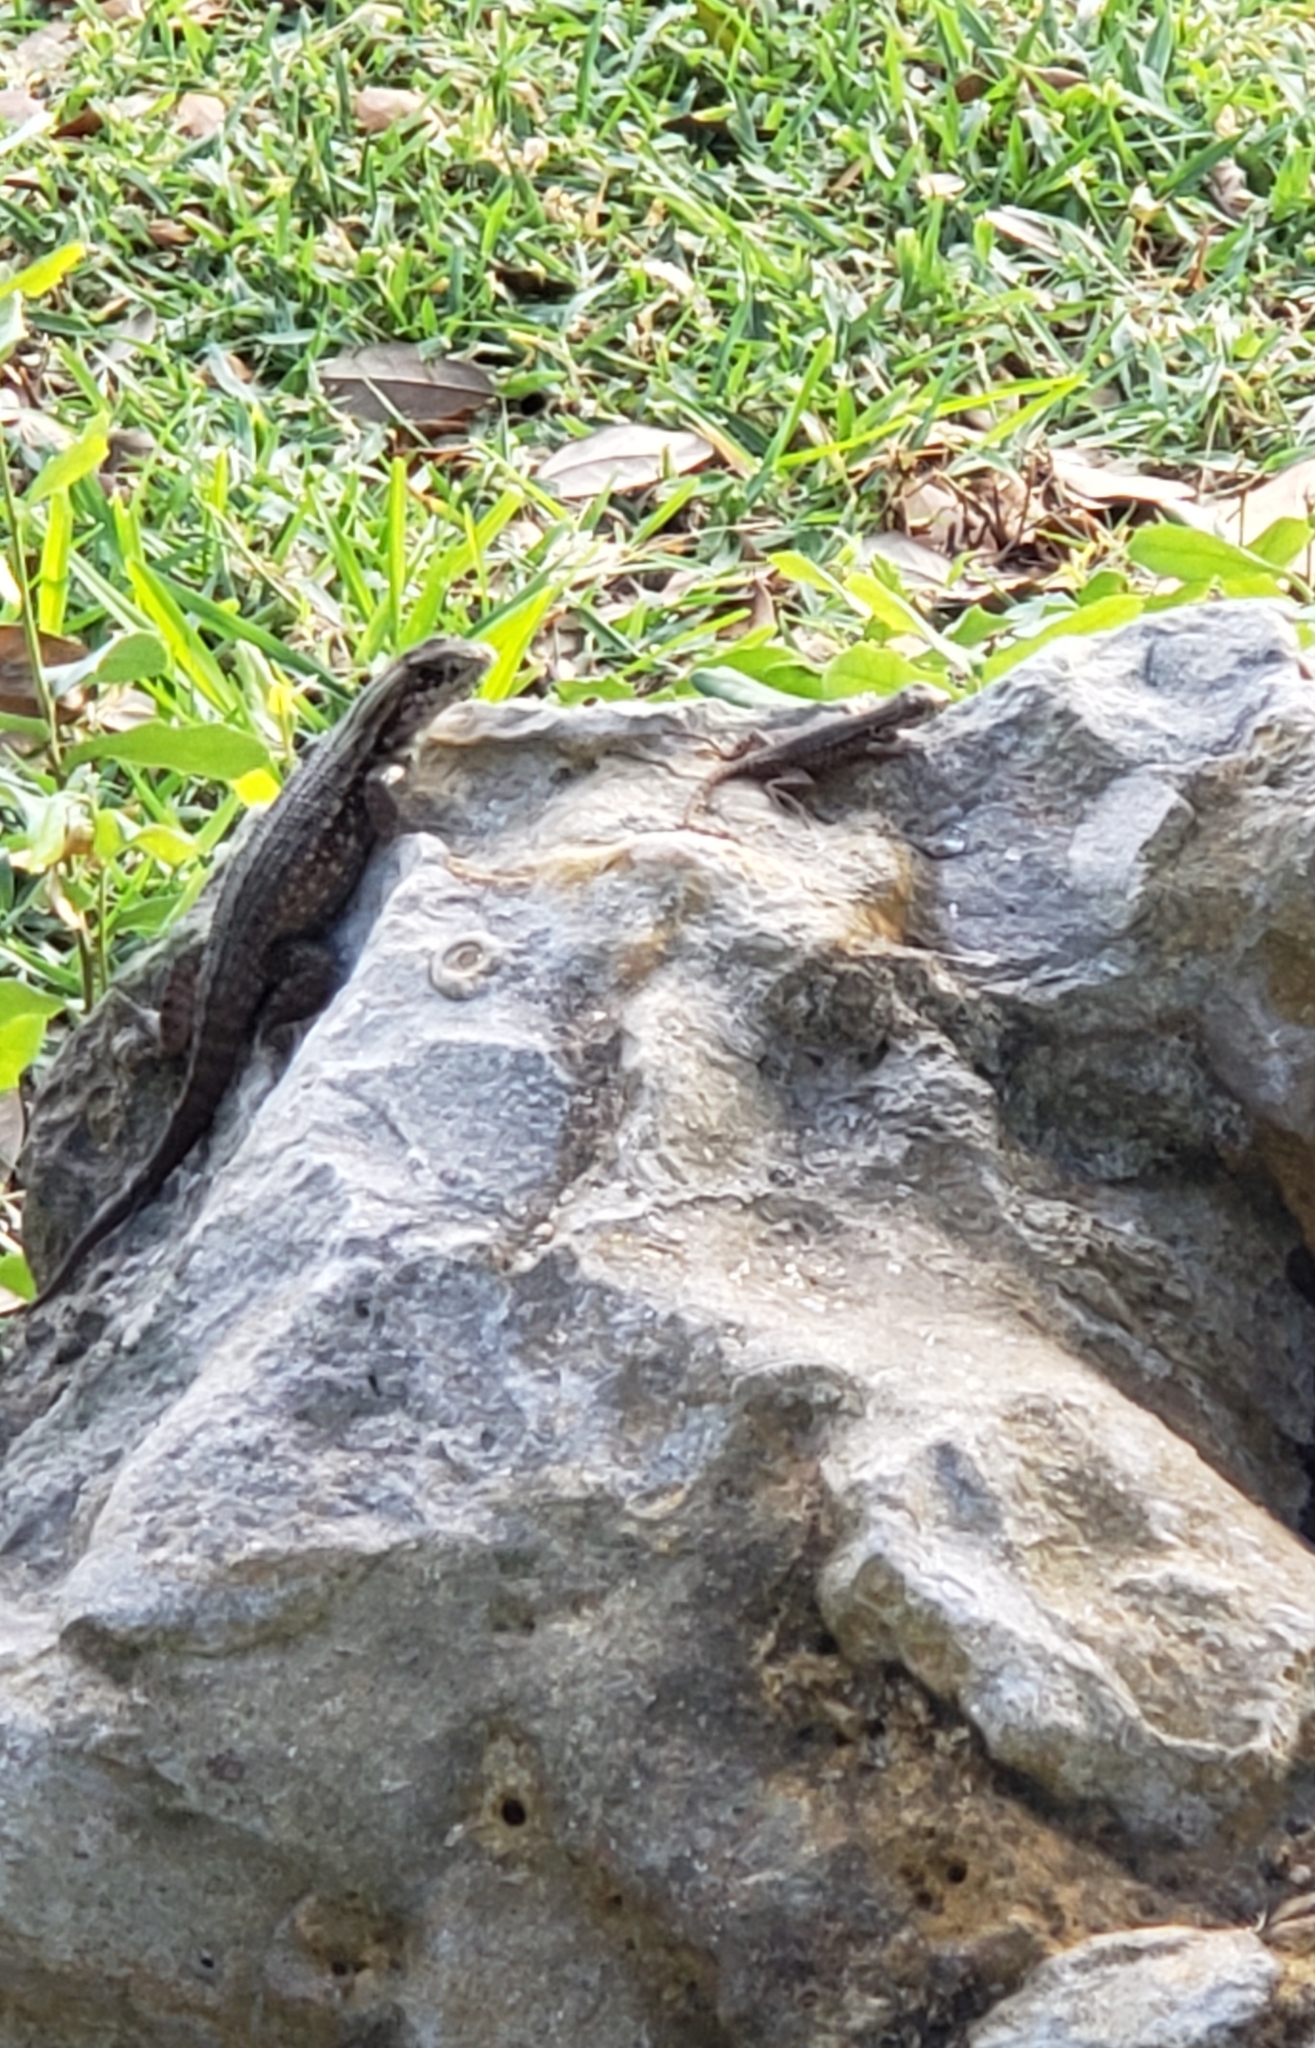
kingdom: Animalia
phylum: Chordata
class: Squamata
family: Leiocephalidae
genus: Leiocephalus
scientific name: Leiocephalus carinatus
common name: Northern curly-tailed lizard
